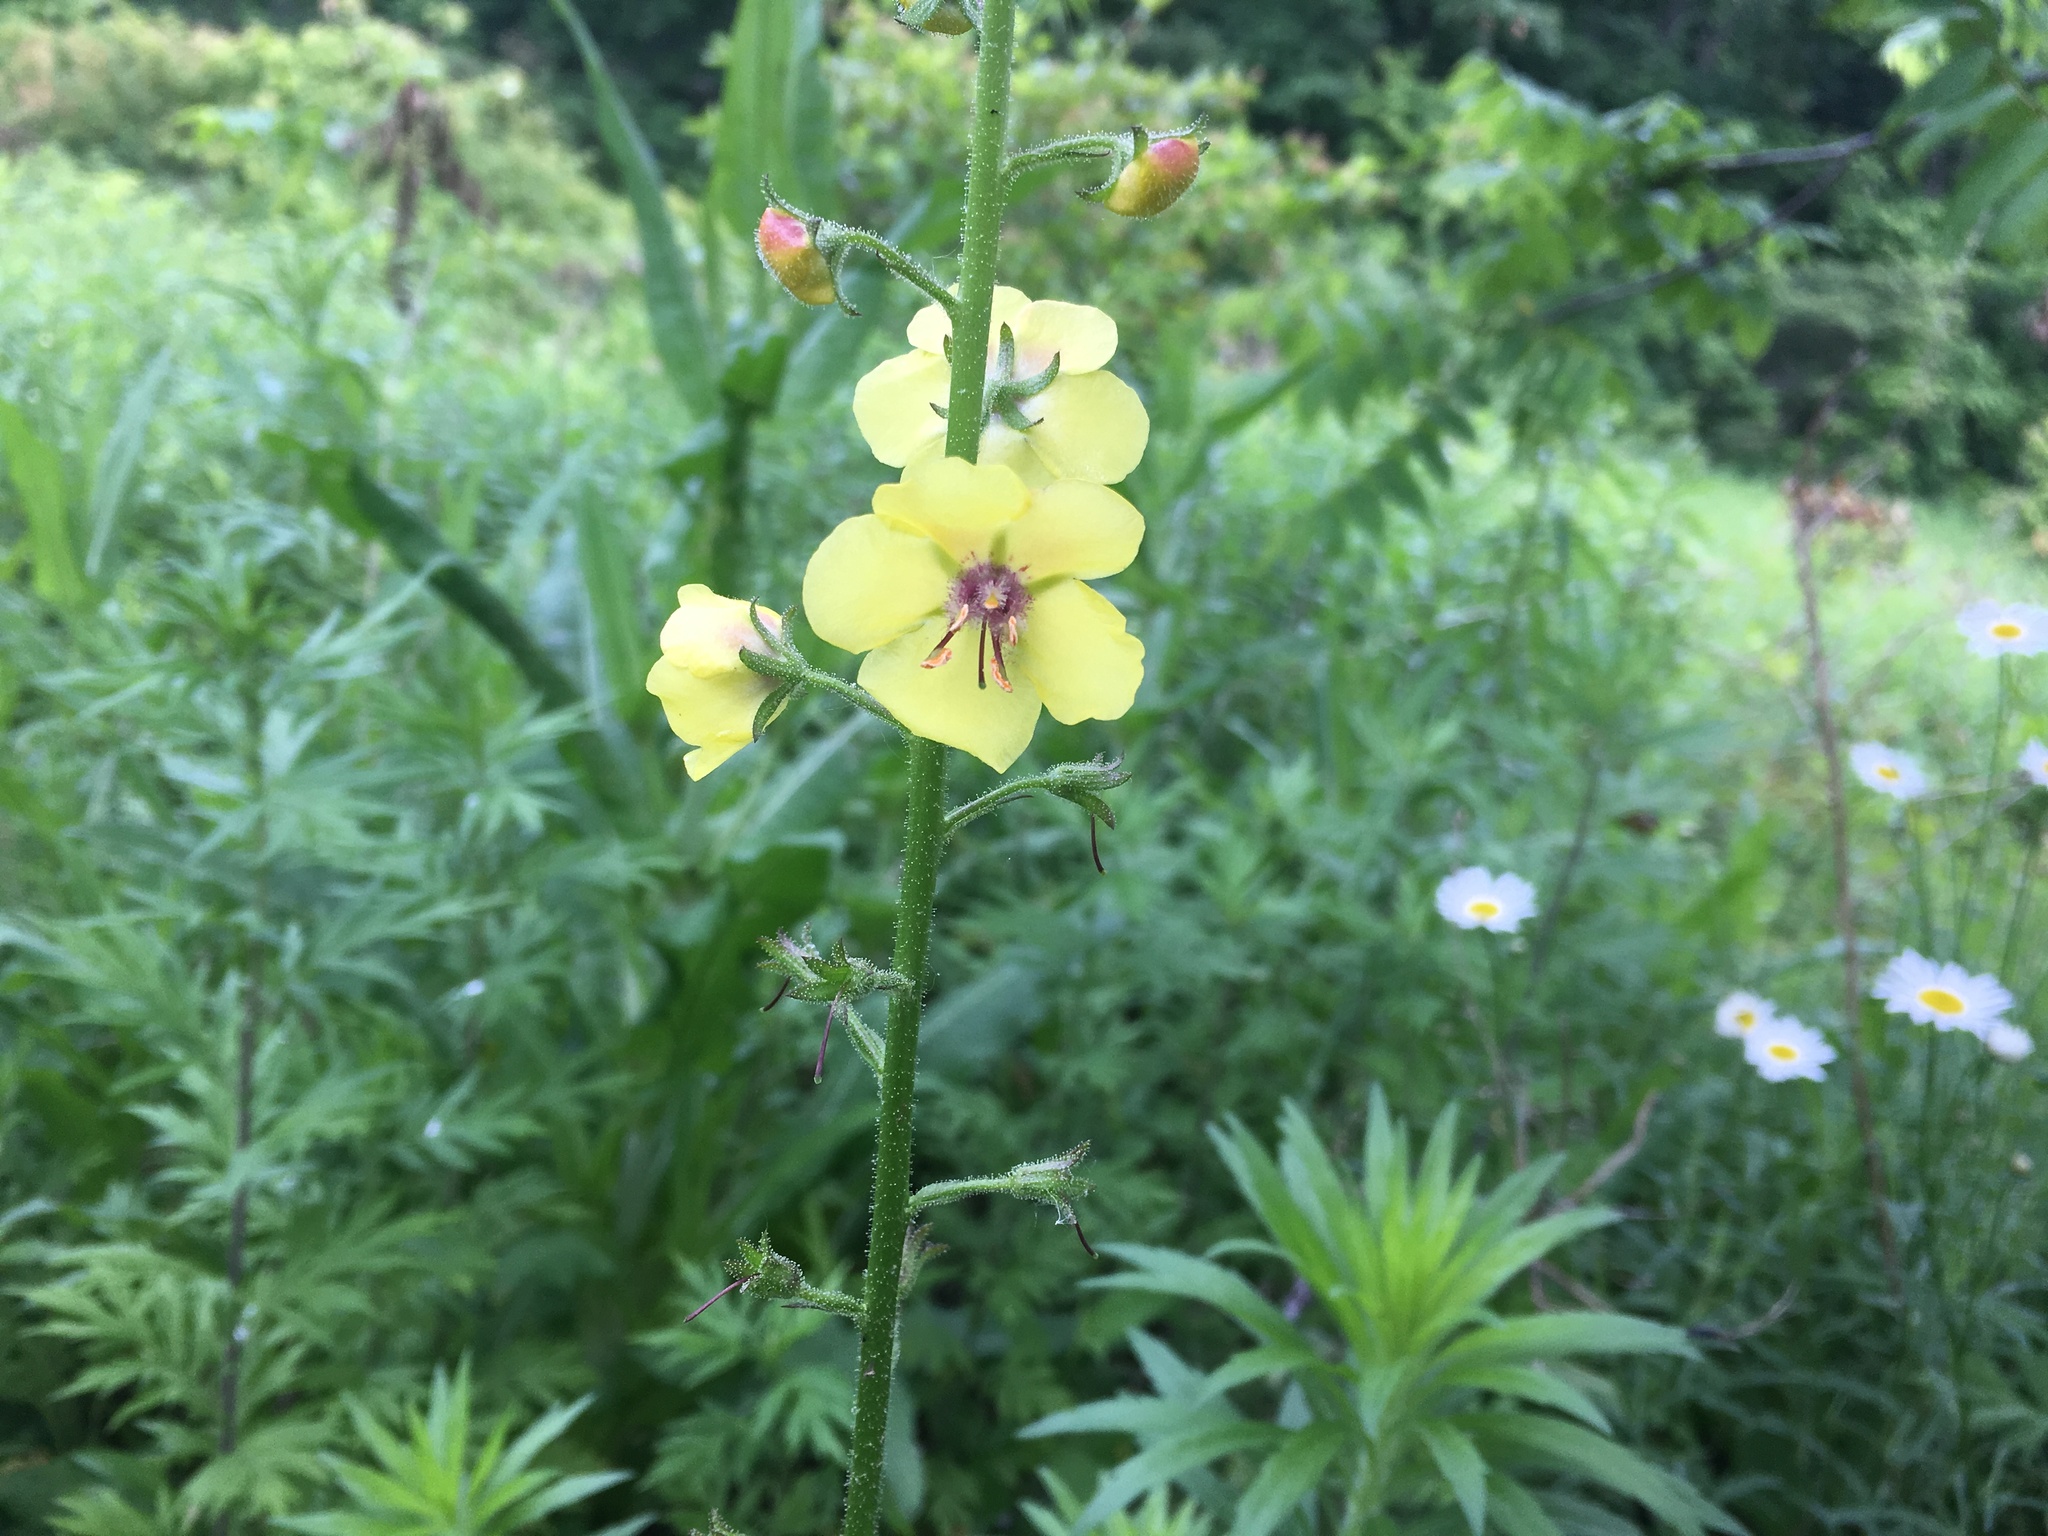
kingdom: Plantae
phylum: Tracheophyta
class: Magnoliopsida
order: Lamiales
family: Scrophulariaceae
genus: Verbascum
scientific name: Verbascum blattaria
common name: Moth mullein
